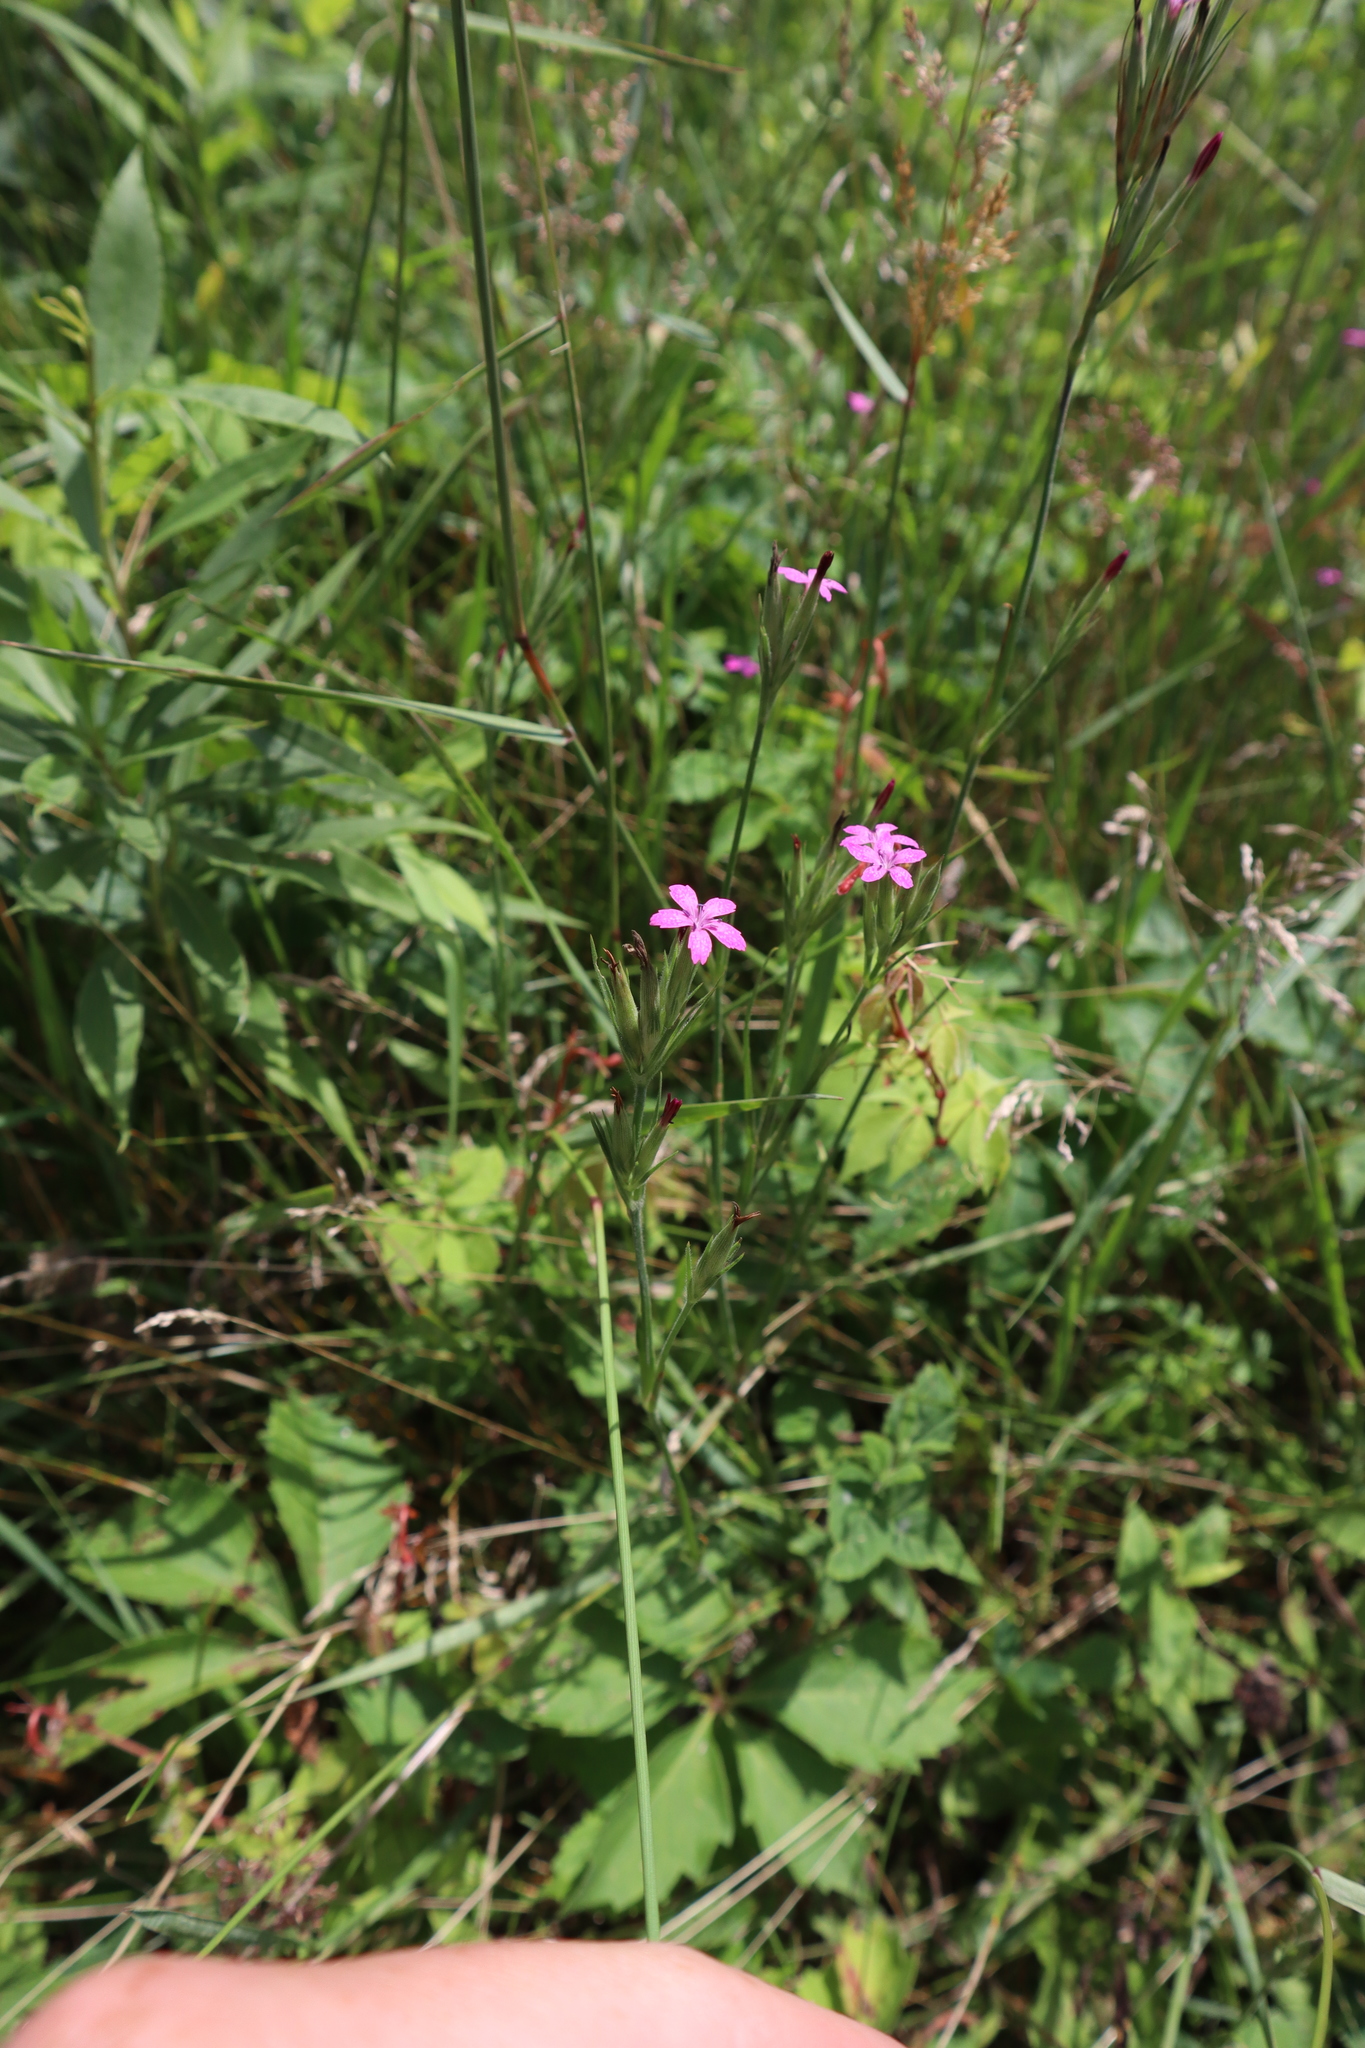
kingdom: Plantae
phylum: Tracheophyta
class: Magnoliopsida
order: Caryophyllales
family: Caryophyllaceae
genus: Dianthus
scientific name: Dianthus armeria
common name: Deptford pink
